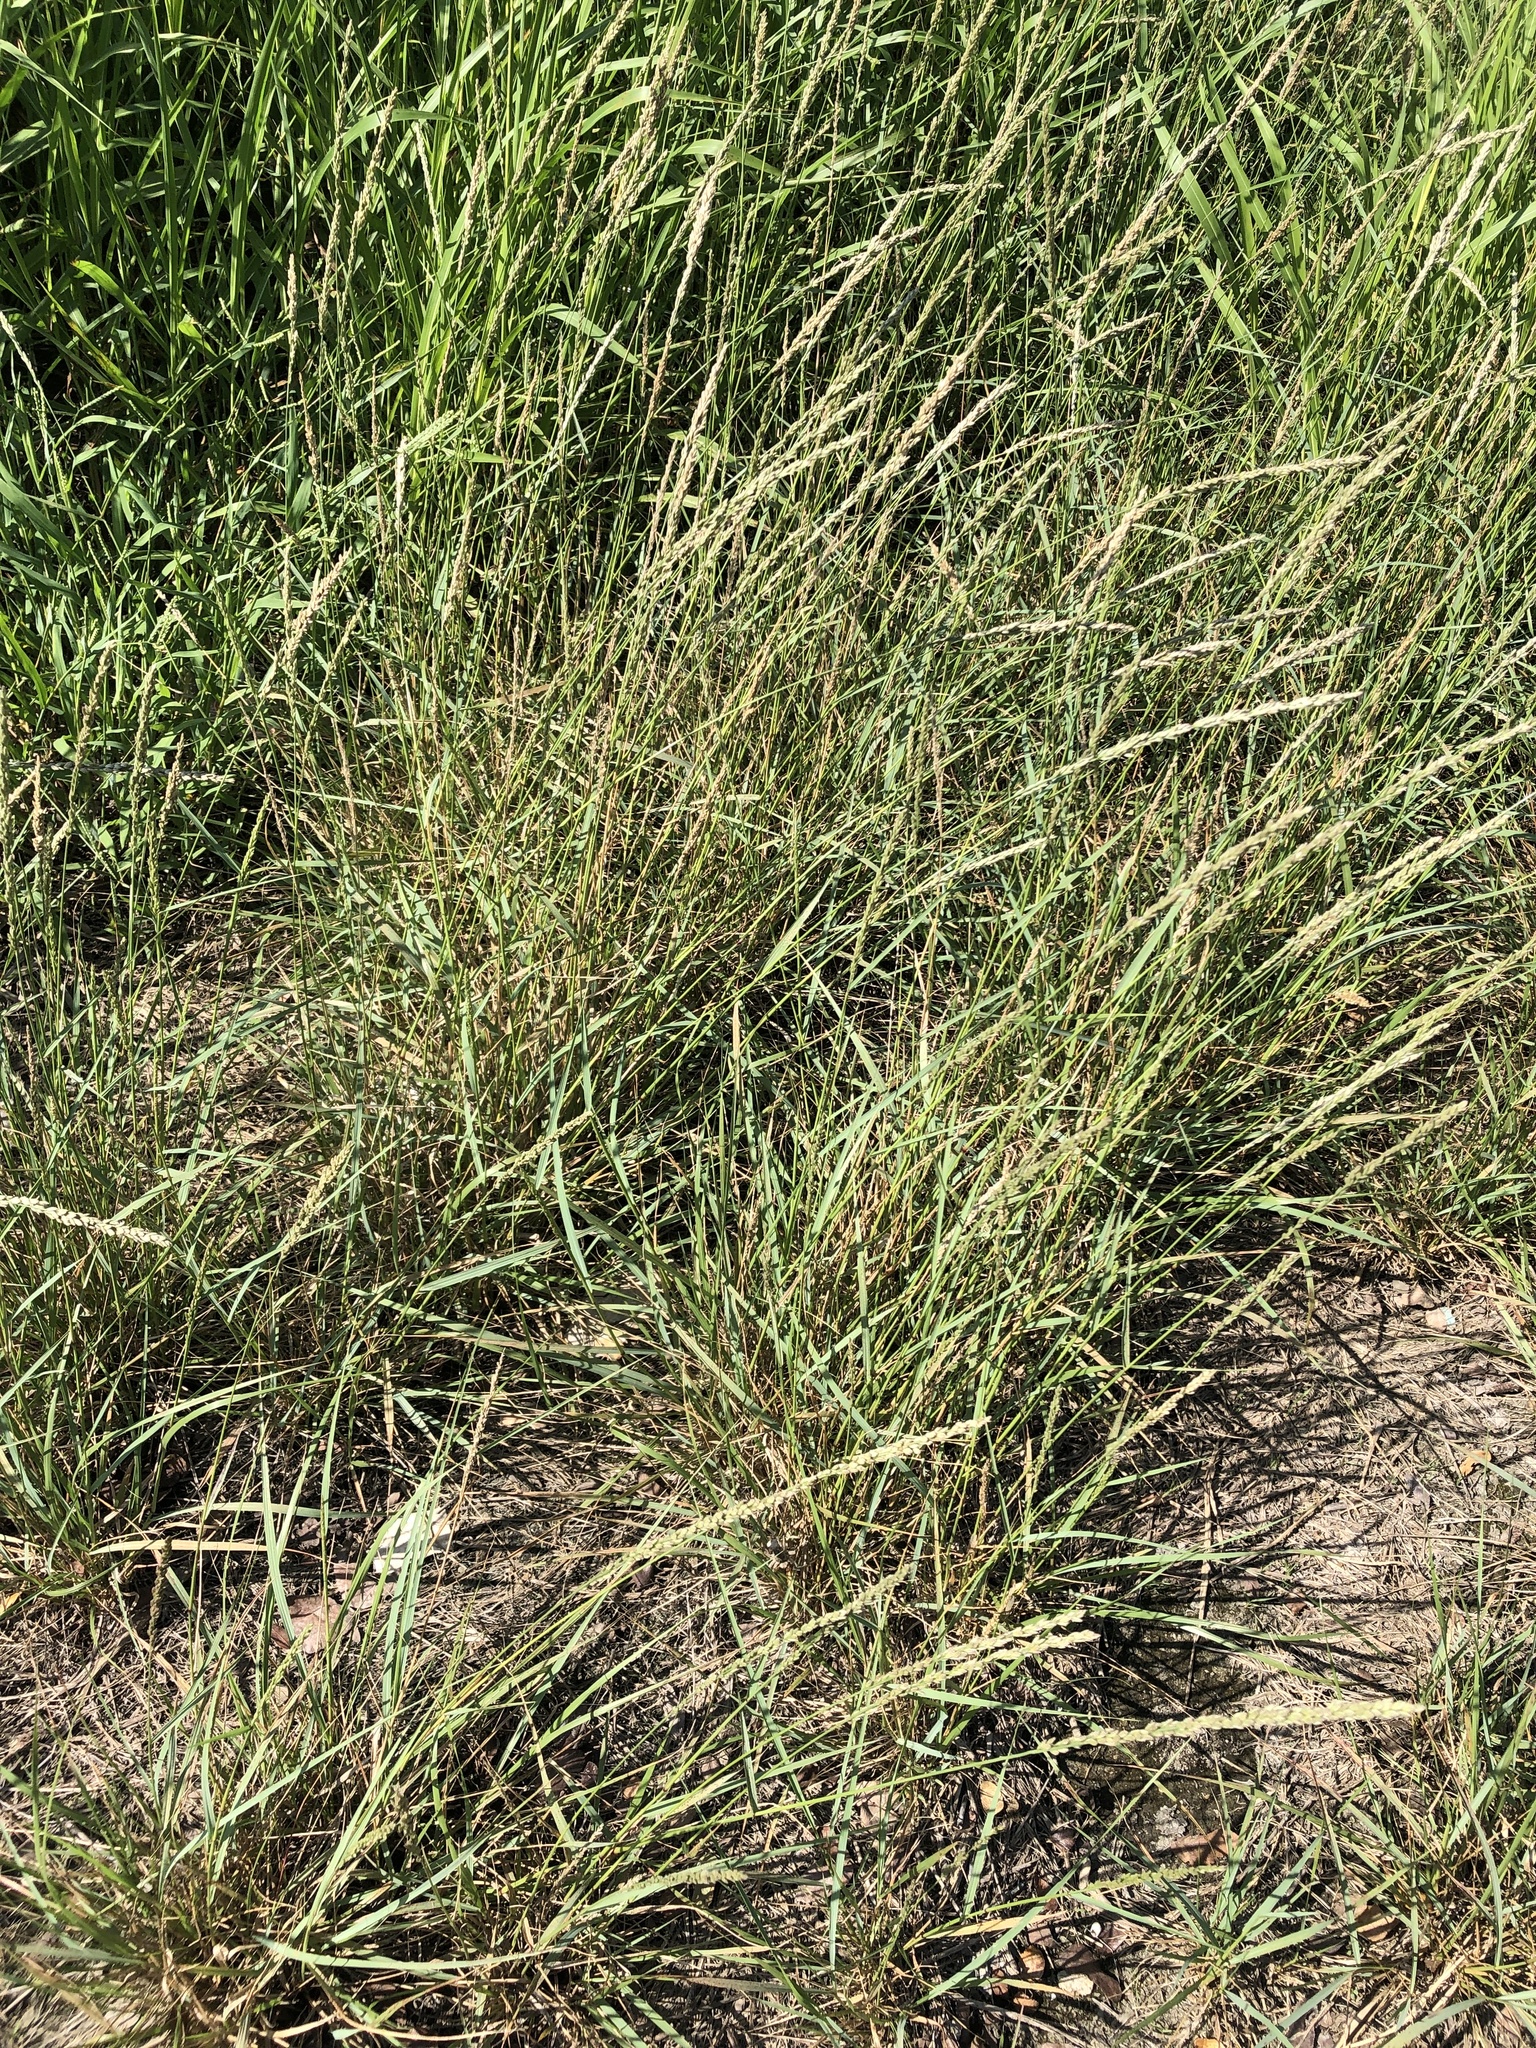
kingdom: Plantae
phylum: Tracheophyta
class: Liliopsida
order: Poales
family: Poaceae
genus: Tridens
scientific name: Tridens albescens
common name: White tridens
